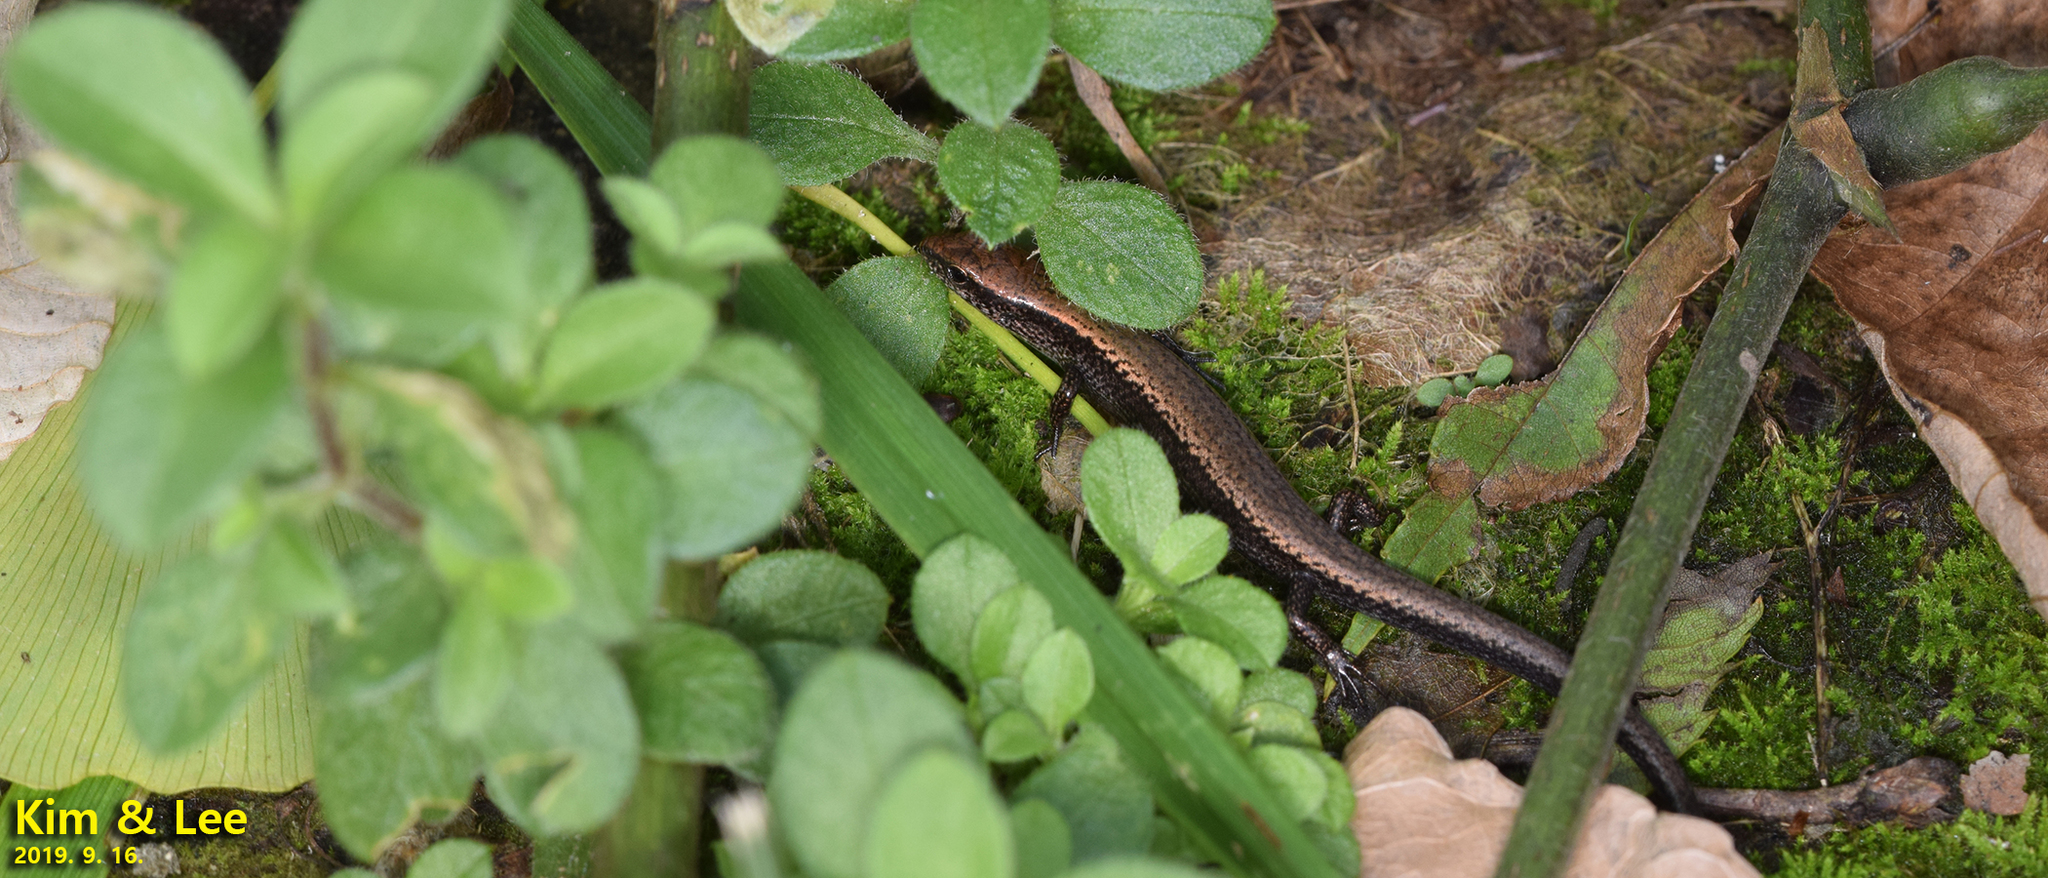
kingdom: Animalia
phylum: Chordata
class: Squamata
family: Scincidae
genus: Scincella
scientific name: Scincella vandenburghi
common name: Tsushima smooth skink
